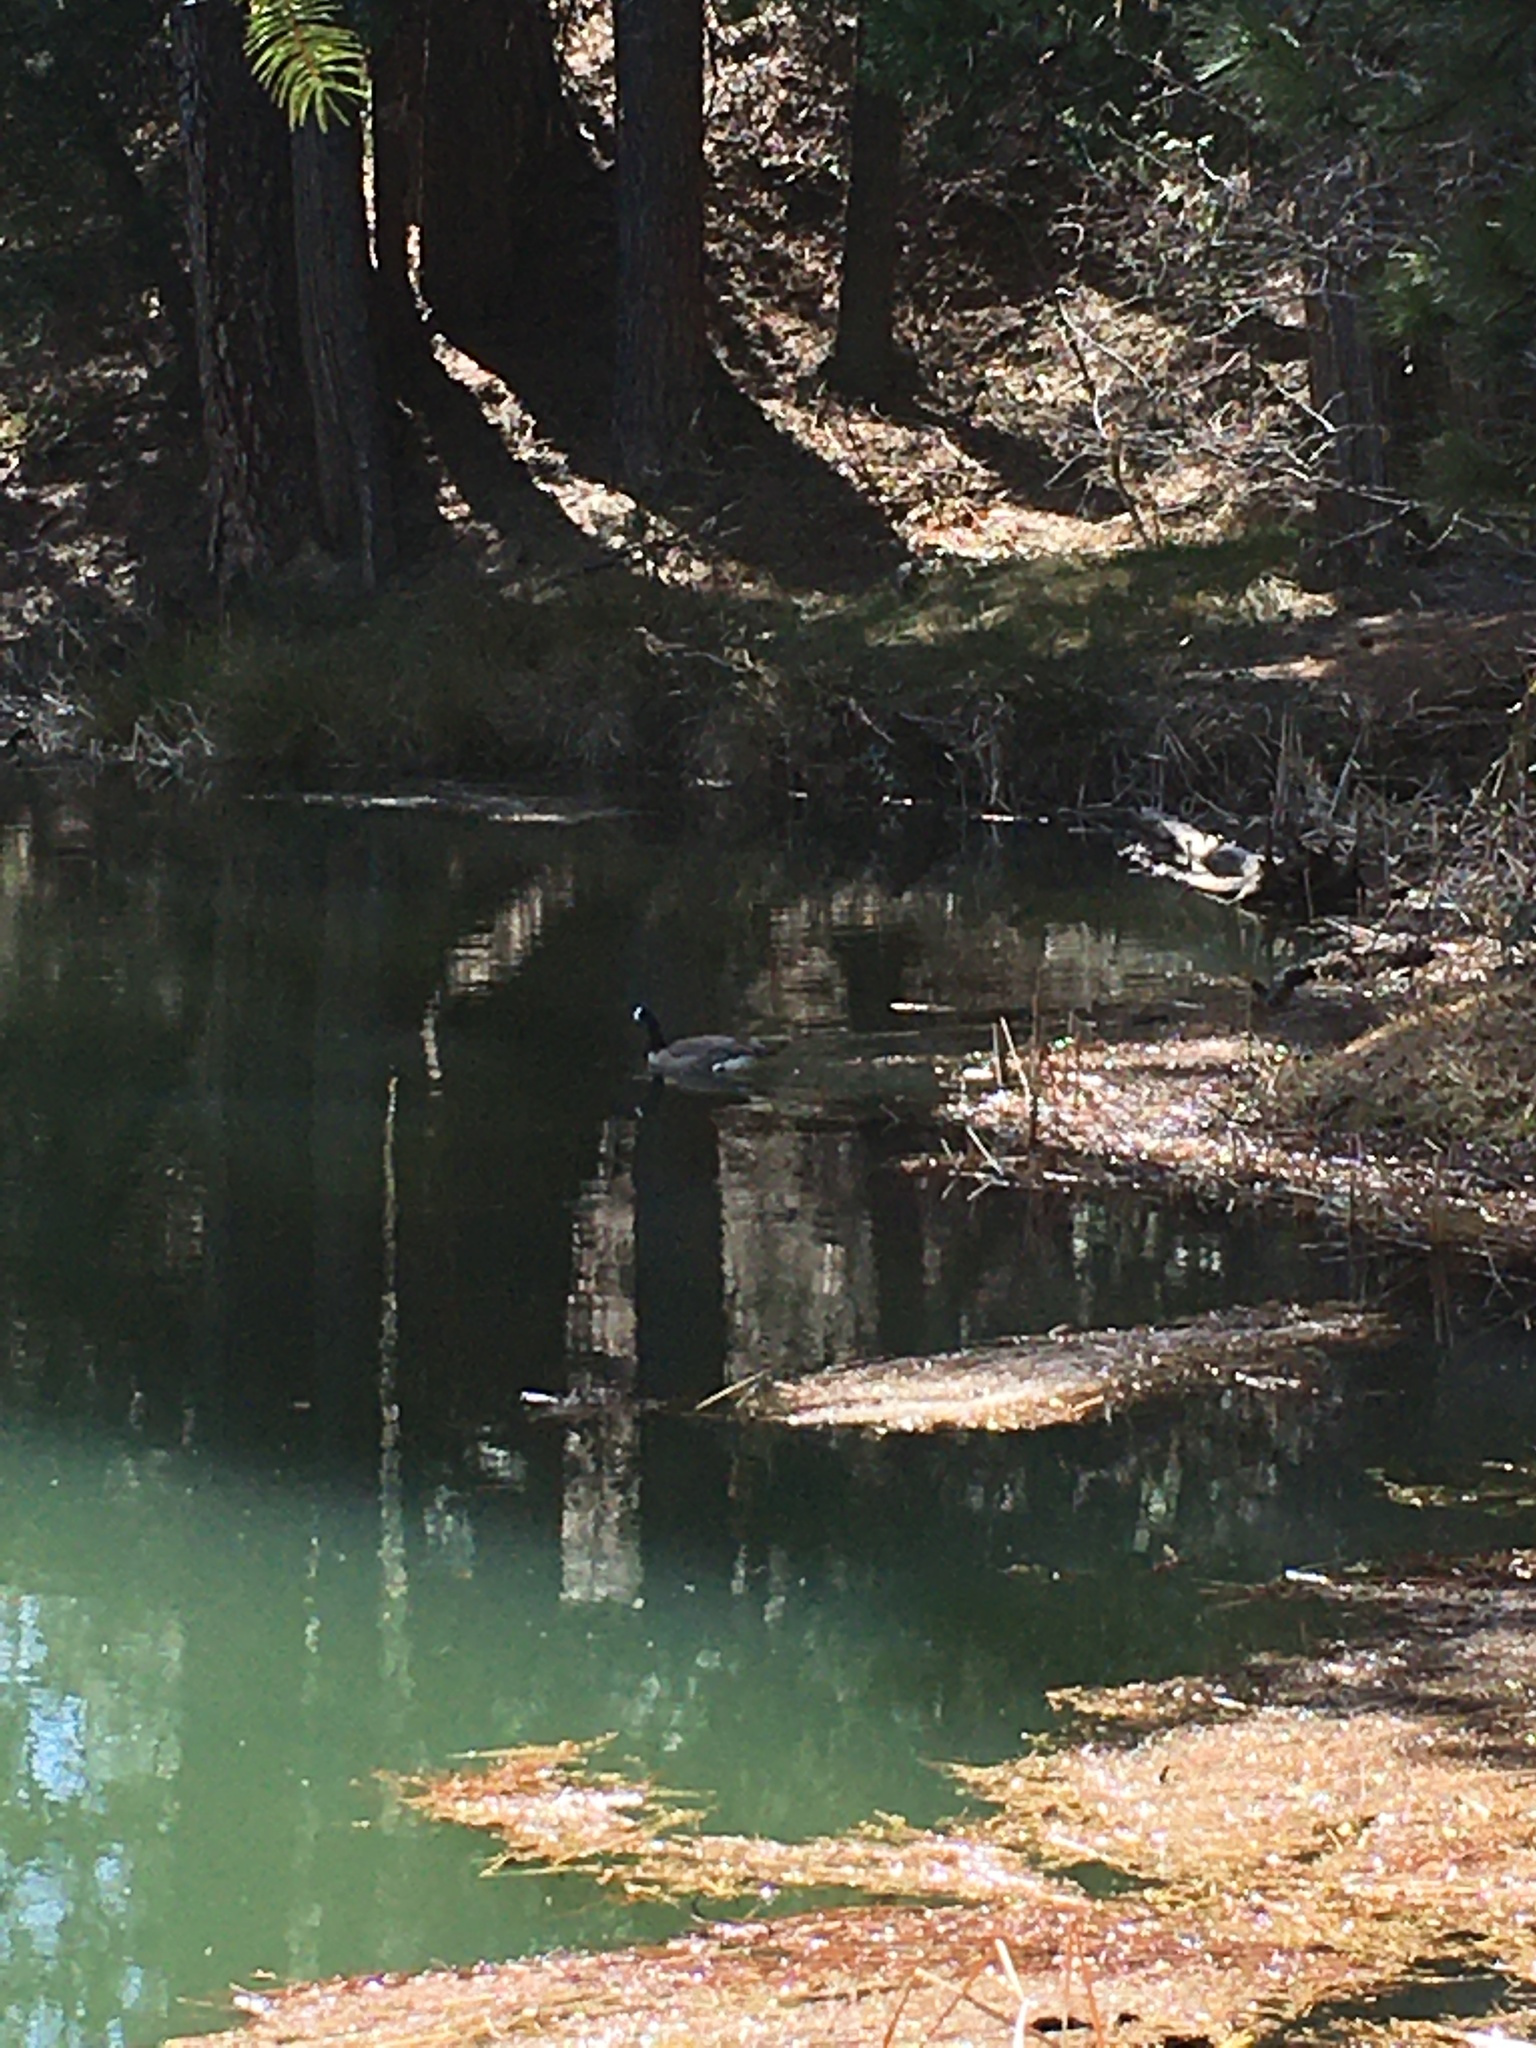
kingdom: Animalia
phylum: Chordata
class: Aves
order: Anseriformes
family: Anatidae
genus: Branta
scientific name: Branta canadensis
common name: Canada goose
